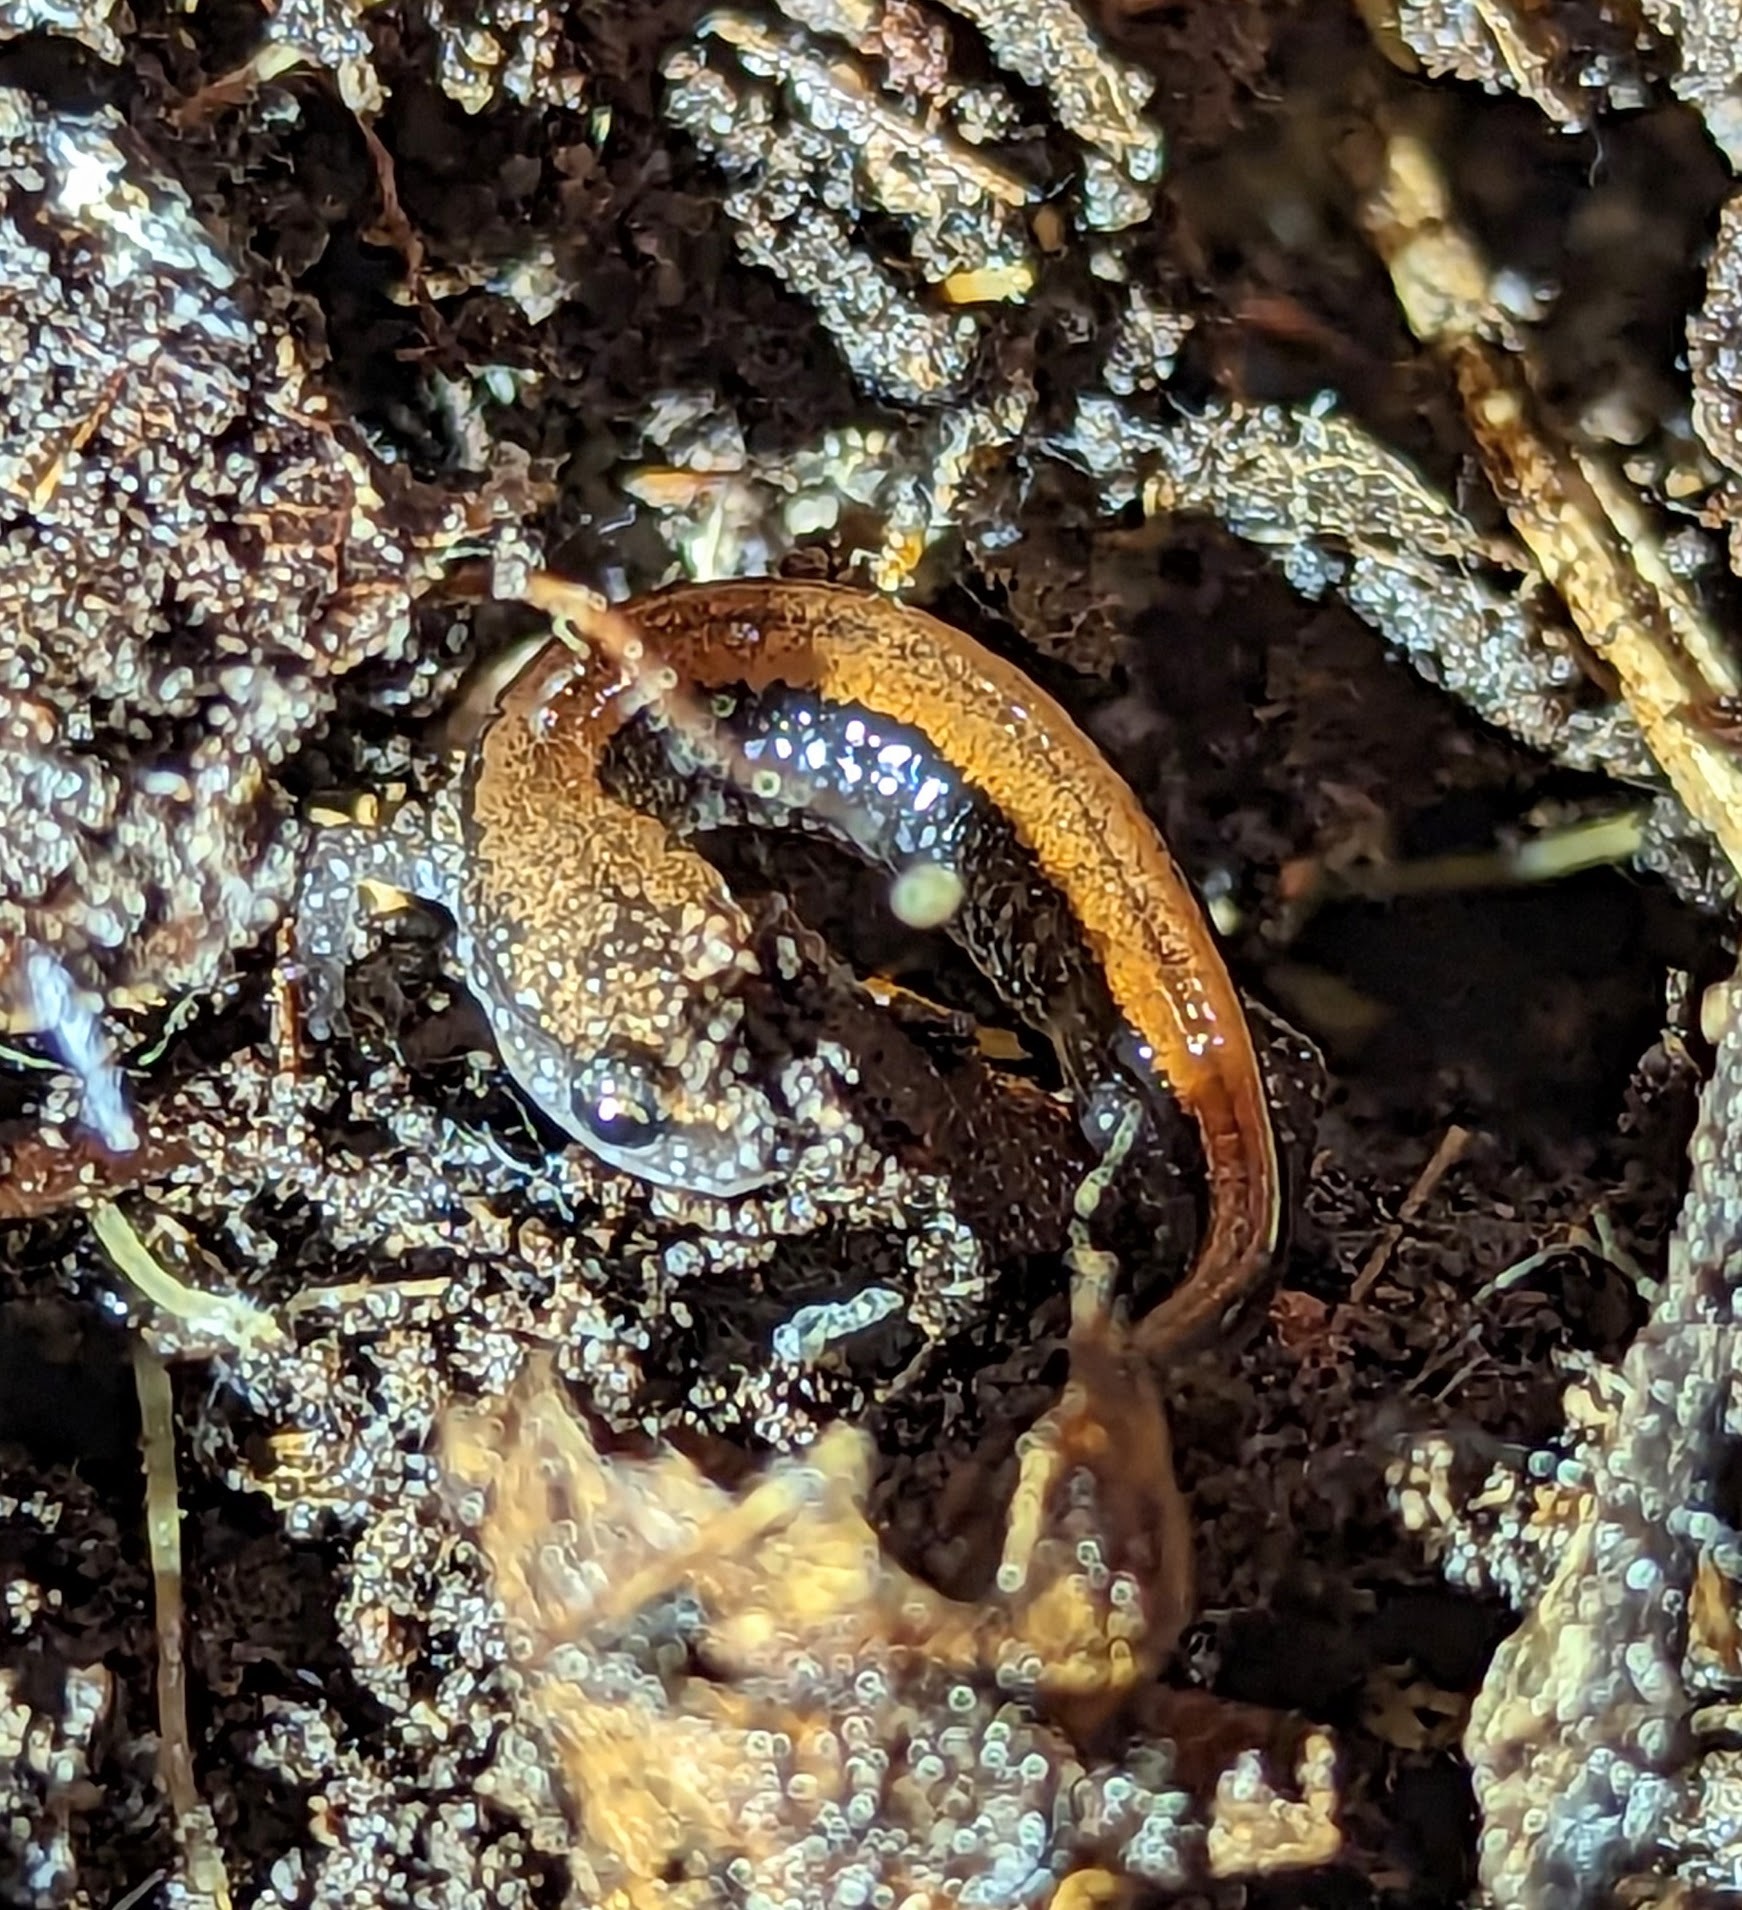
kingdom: Animalia
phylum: Chordata
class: Amphibia
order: Caudata
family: Plethodontidae
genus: Plethodon
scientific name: Plethodon cinereus
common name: Redback salamander
